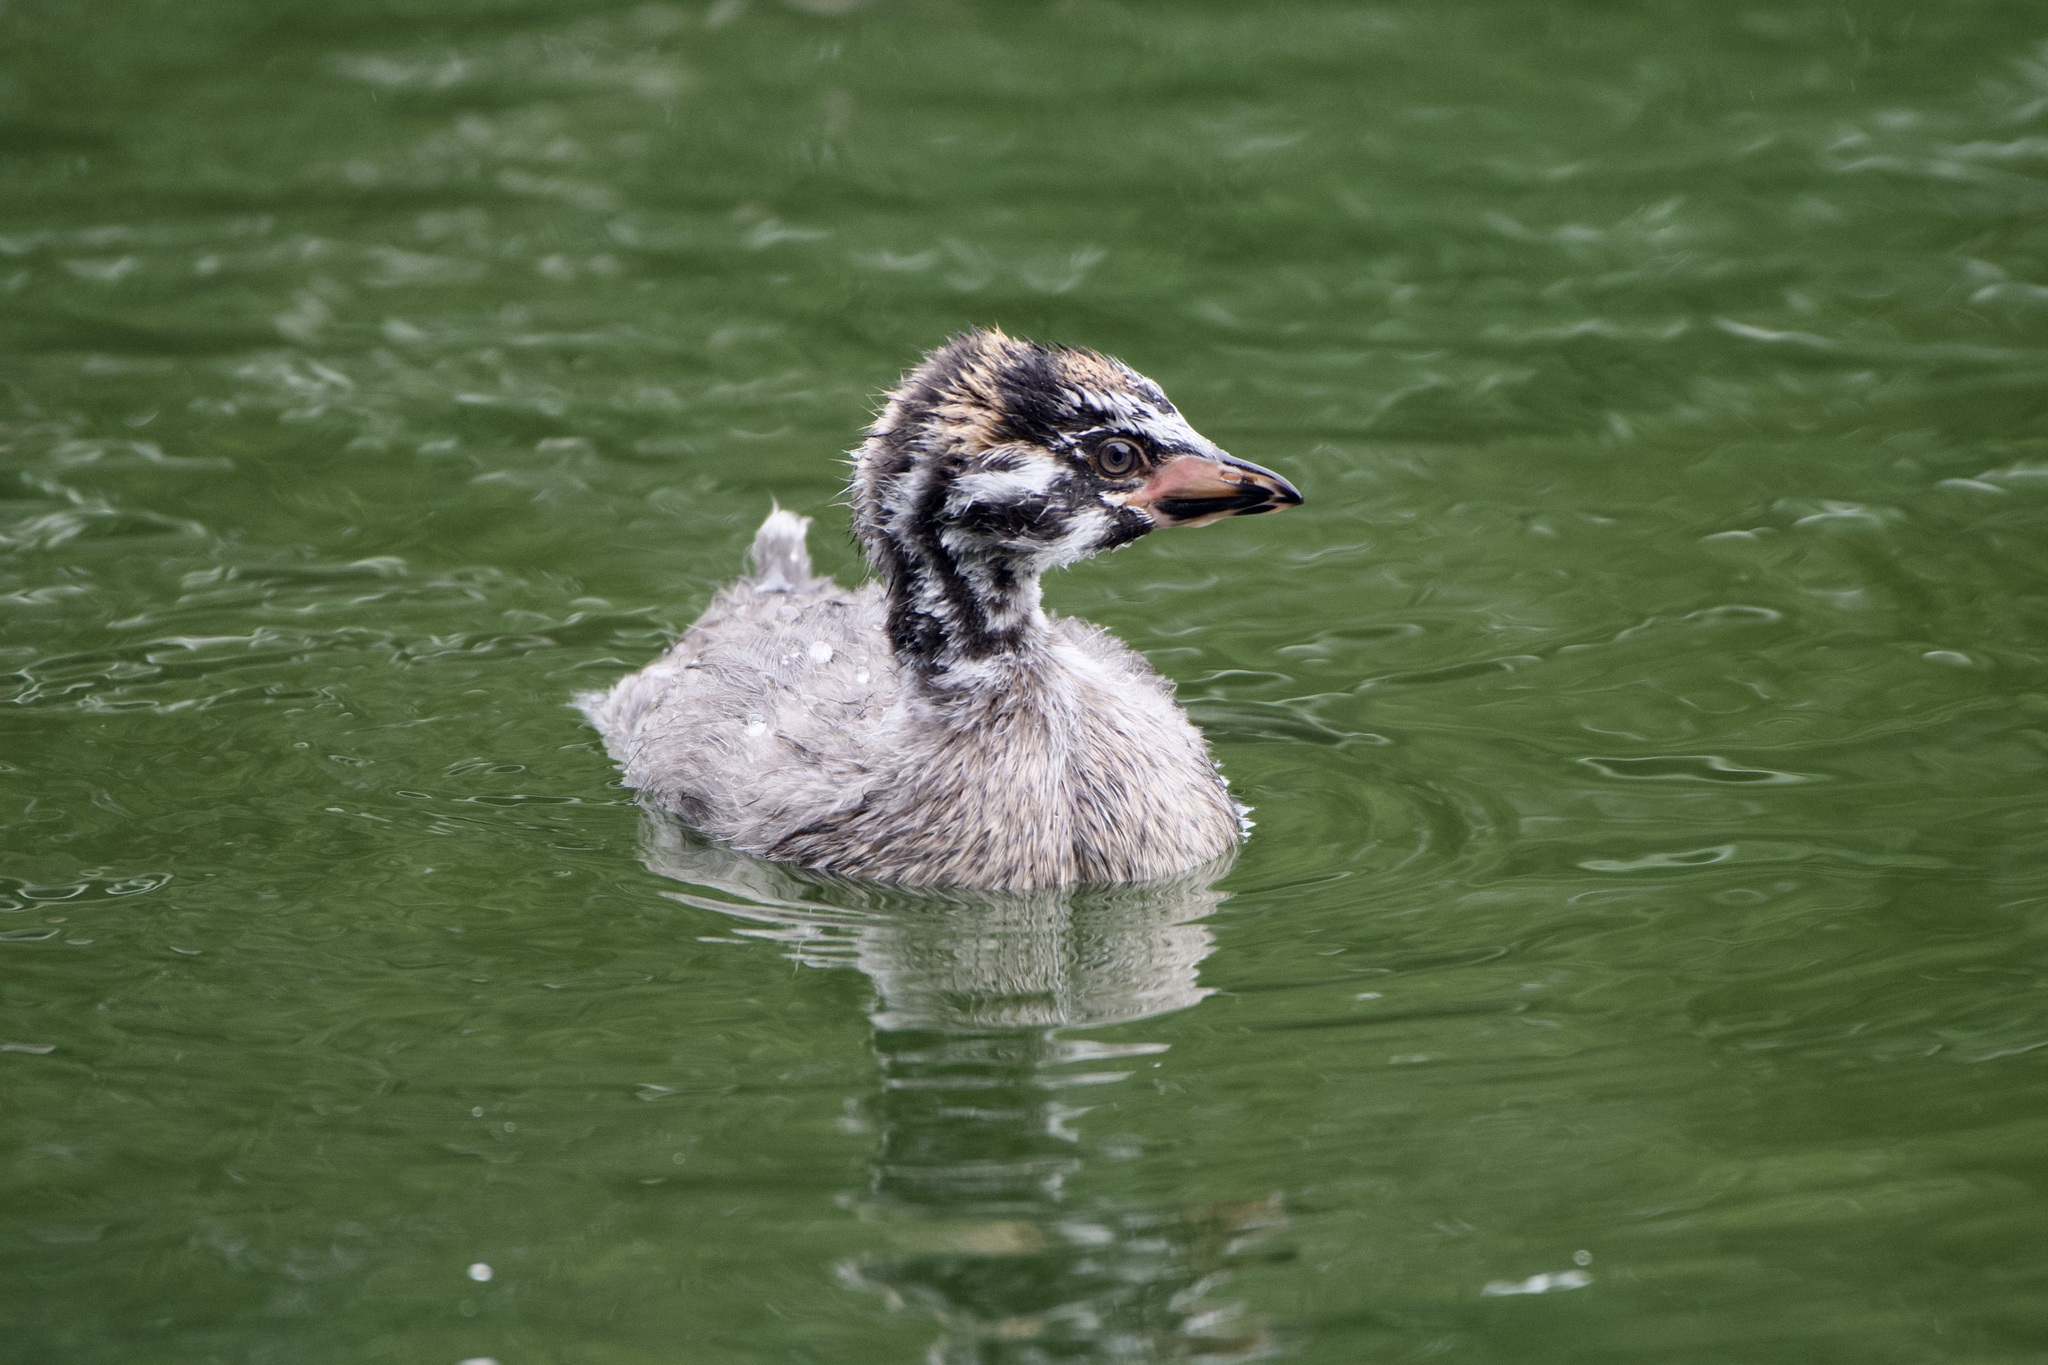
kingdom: Animalia
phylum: Chordata
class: Aves
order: Podicipediformes
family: Podicipedidae
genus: Podilymbus
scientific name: Podilymbus podiceps
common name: Pied-billed grebe
